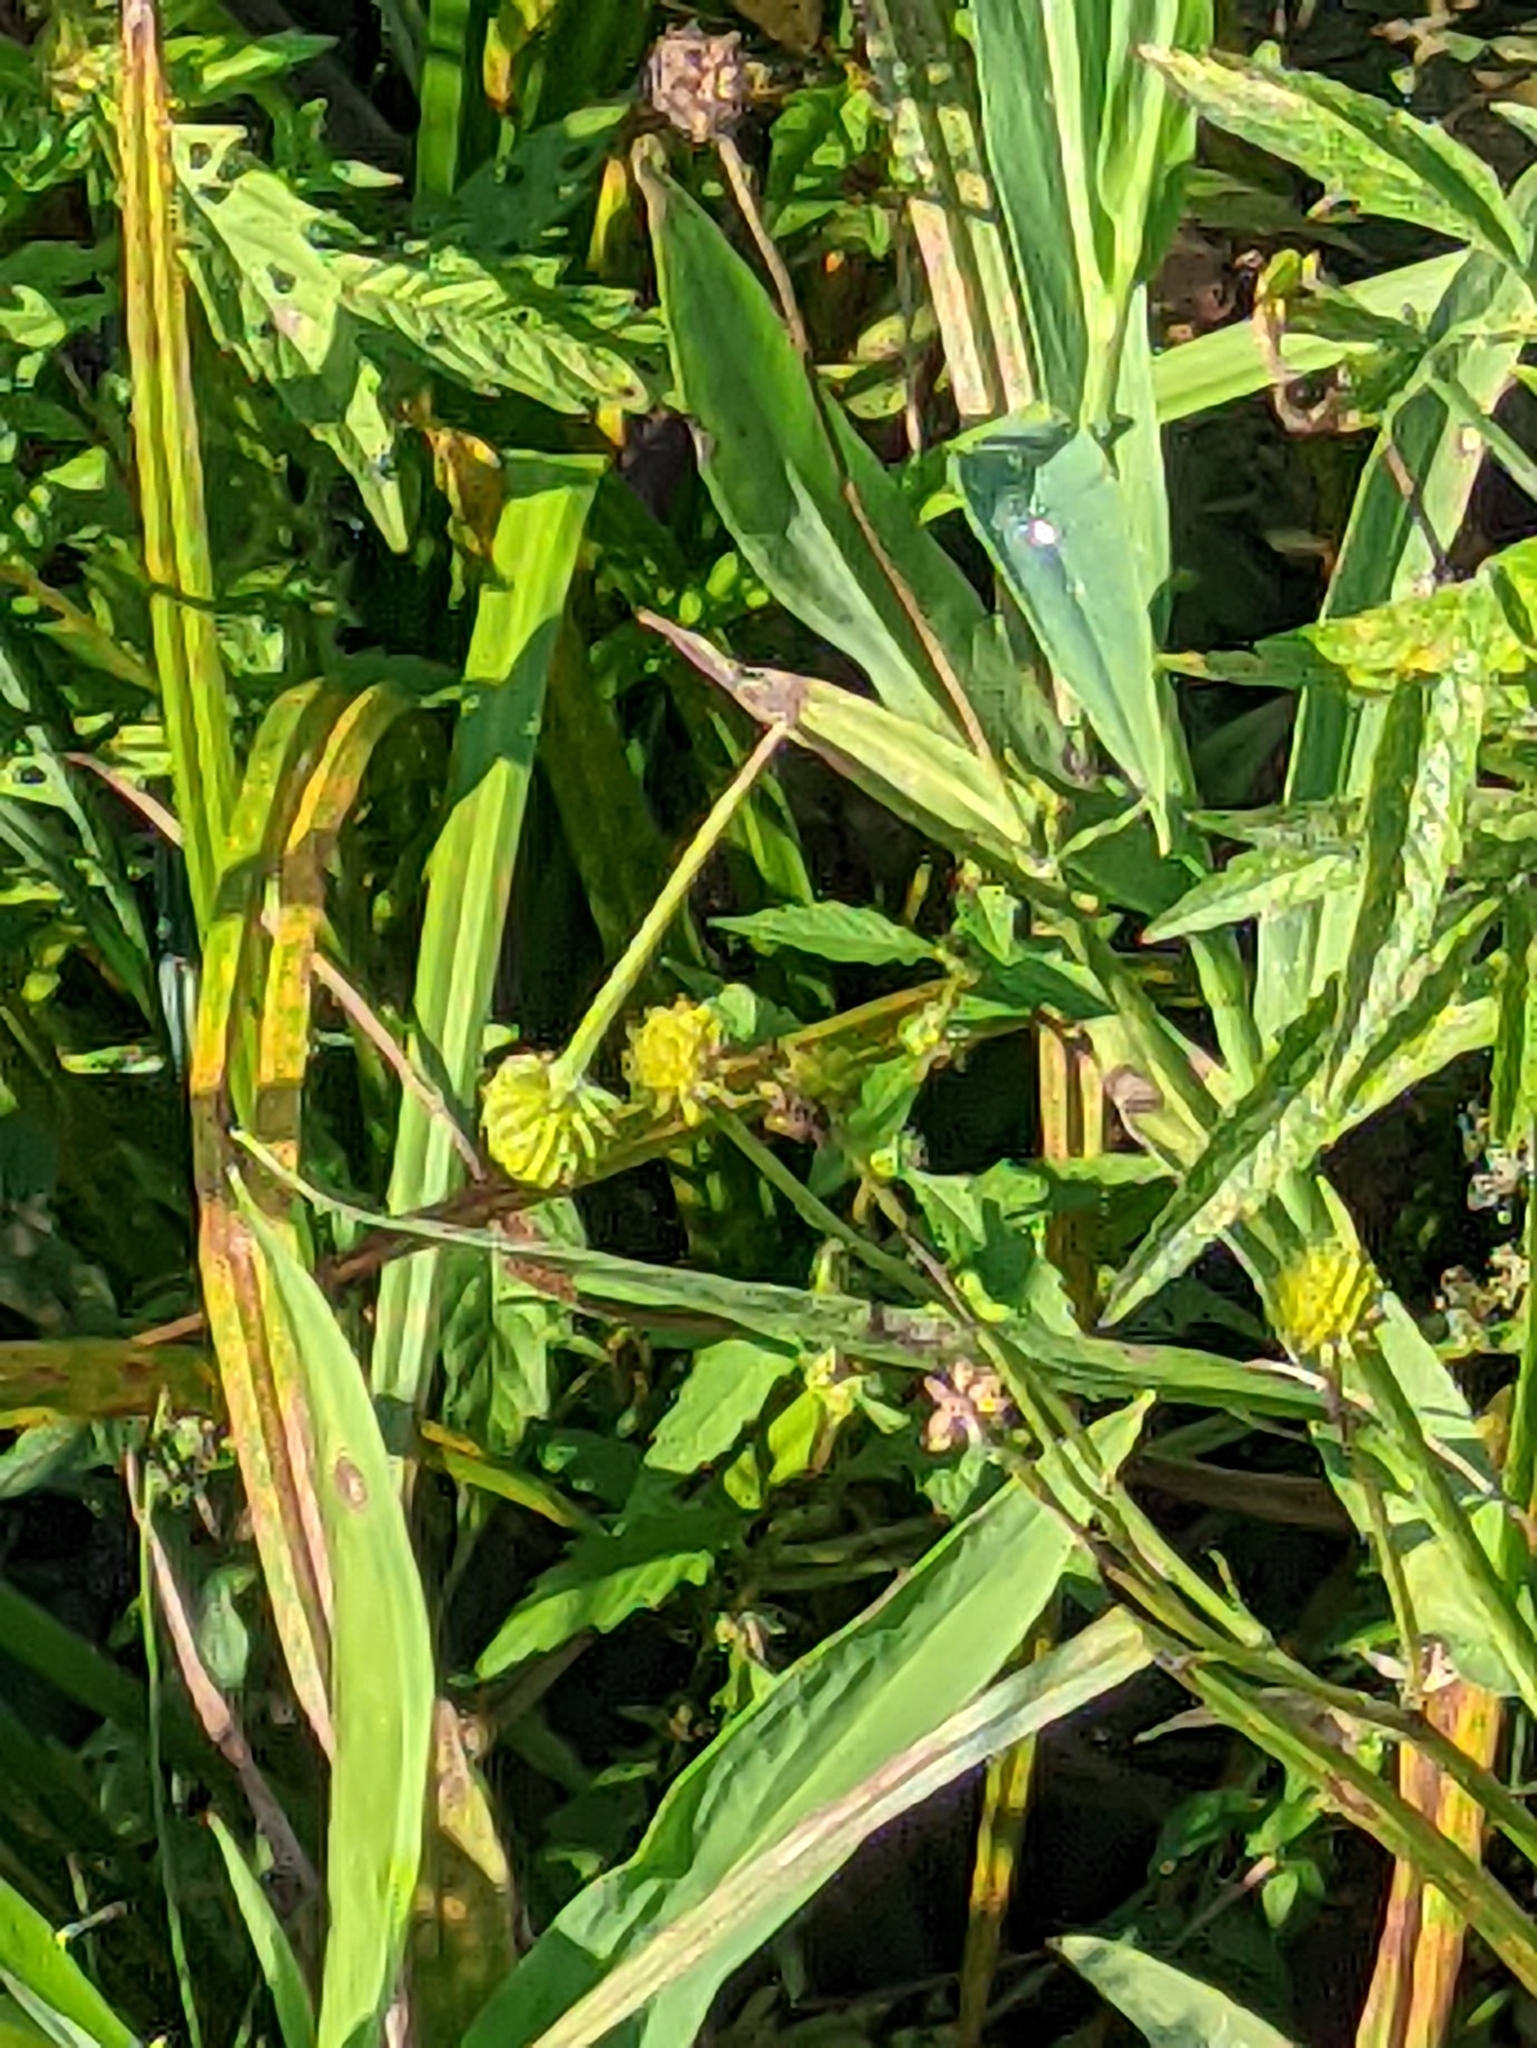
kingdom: Plantae
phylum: Tracheophyta
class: Magnoliopsida
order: Ranunculales
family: Ranunculaceae
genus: Ranunculus
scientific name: Ranunculus lingua
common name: Greater spearwort
